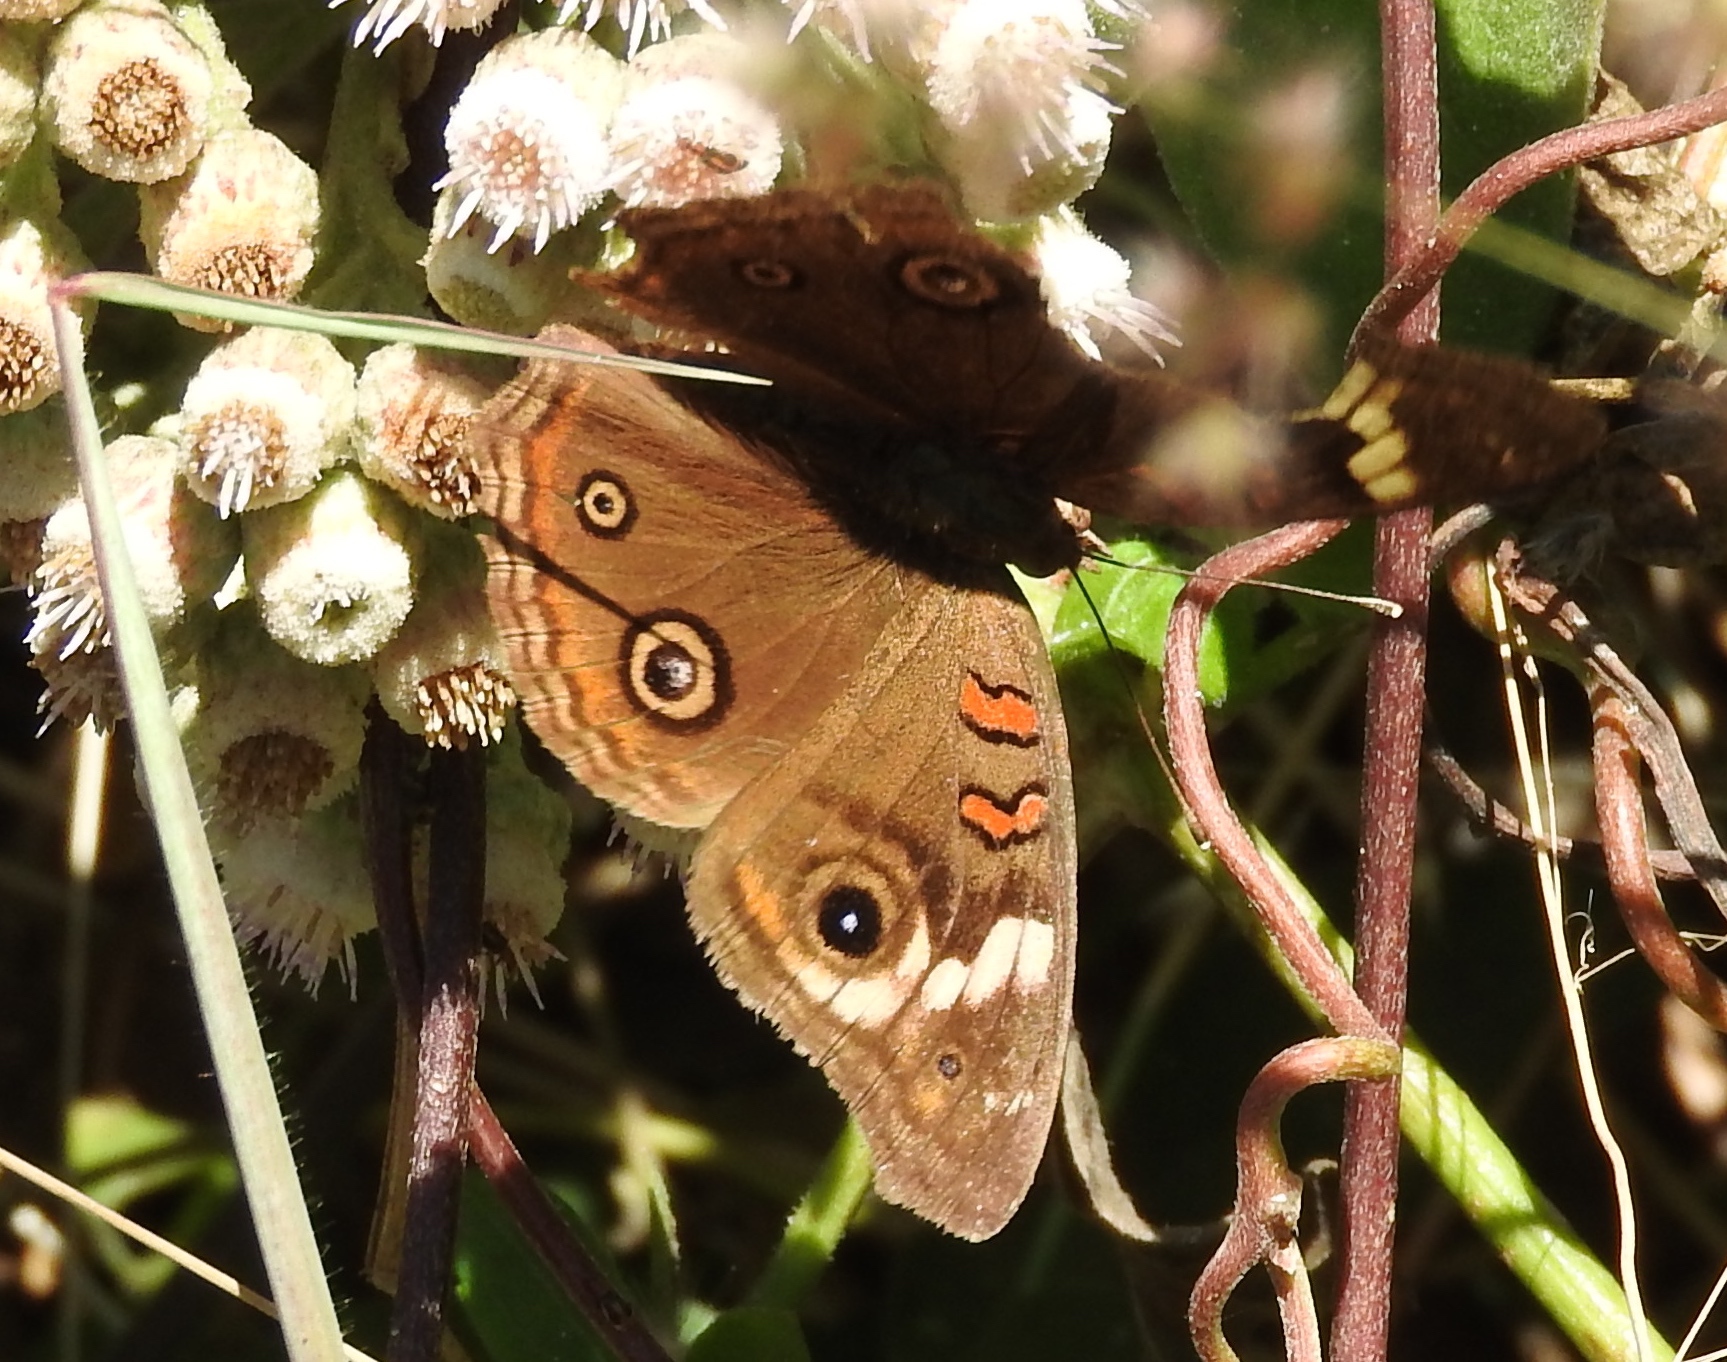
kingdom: Animalia
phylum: Arthropoda
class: Insecta
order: Lepidoptera
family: Nymphalidae
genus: Junonia
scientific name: Junonia
